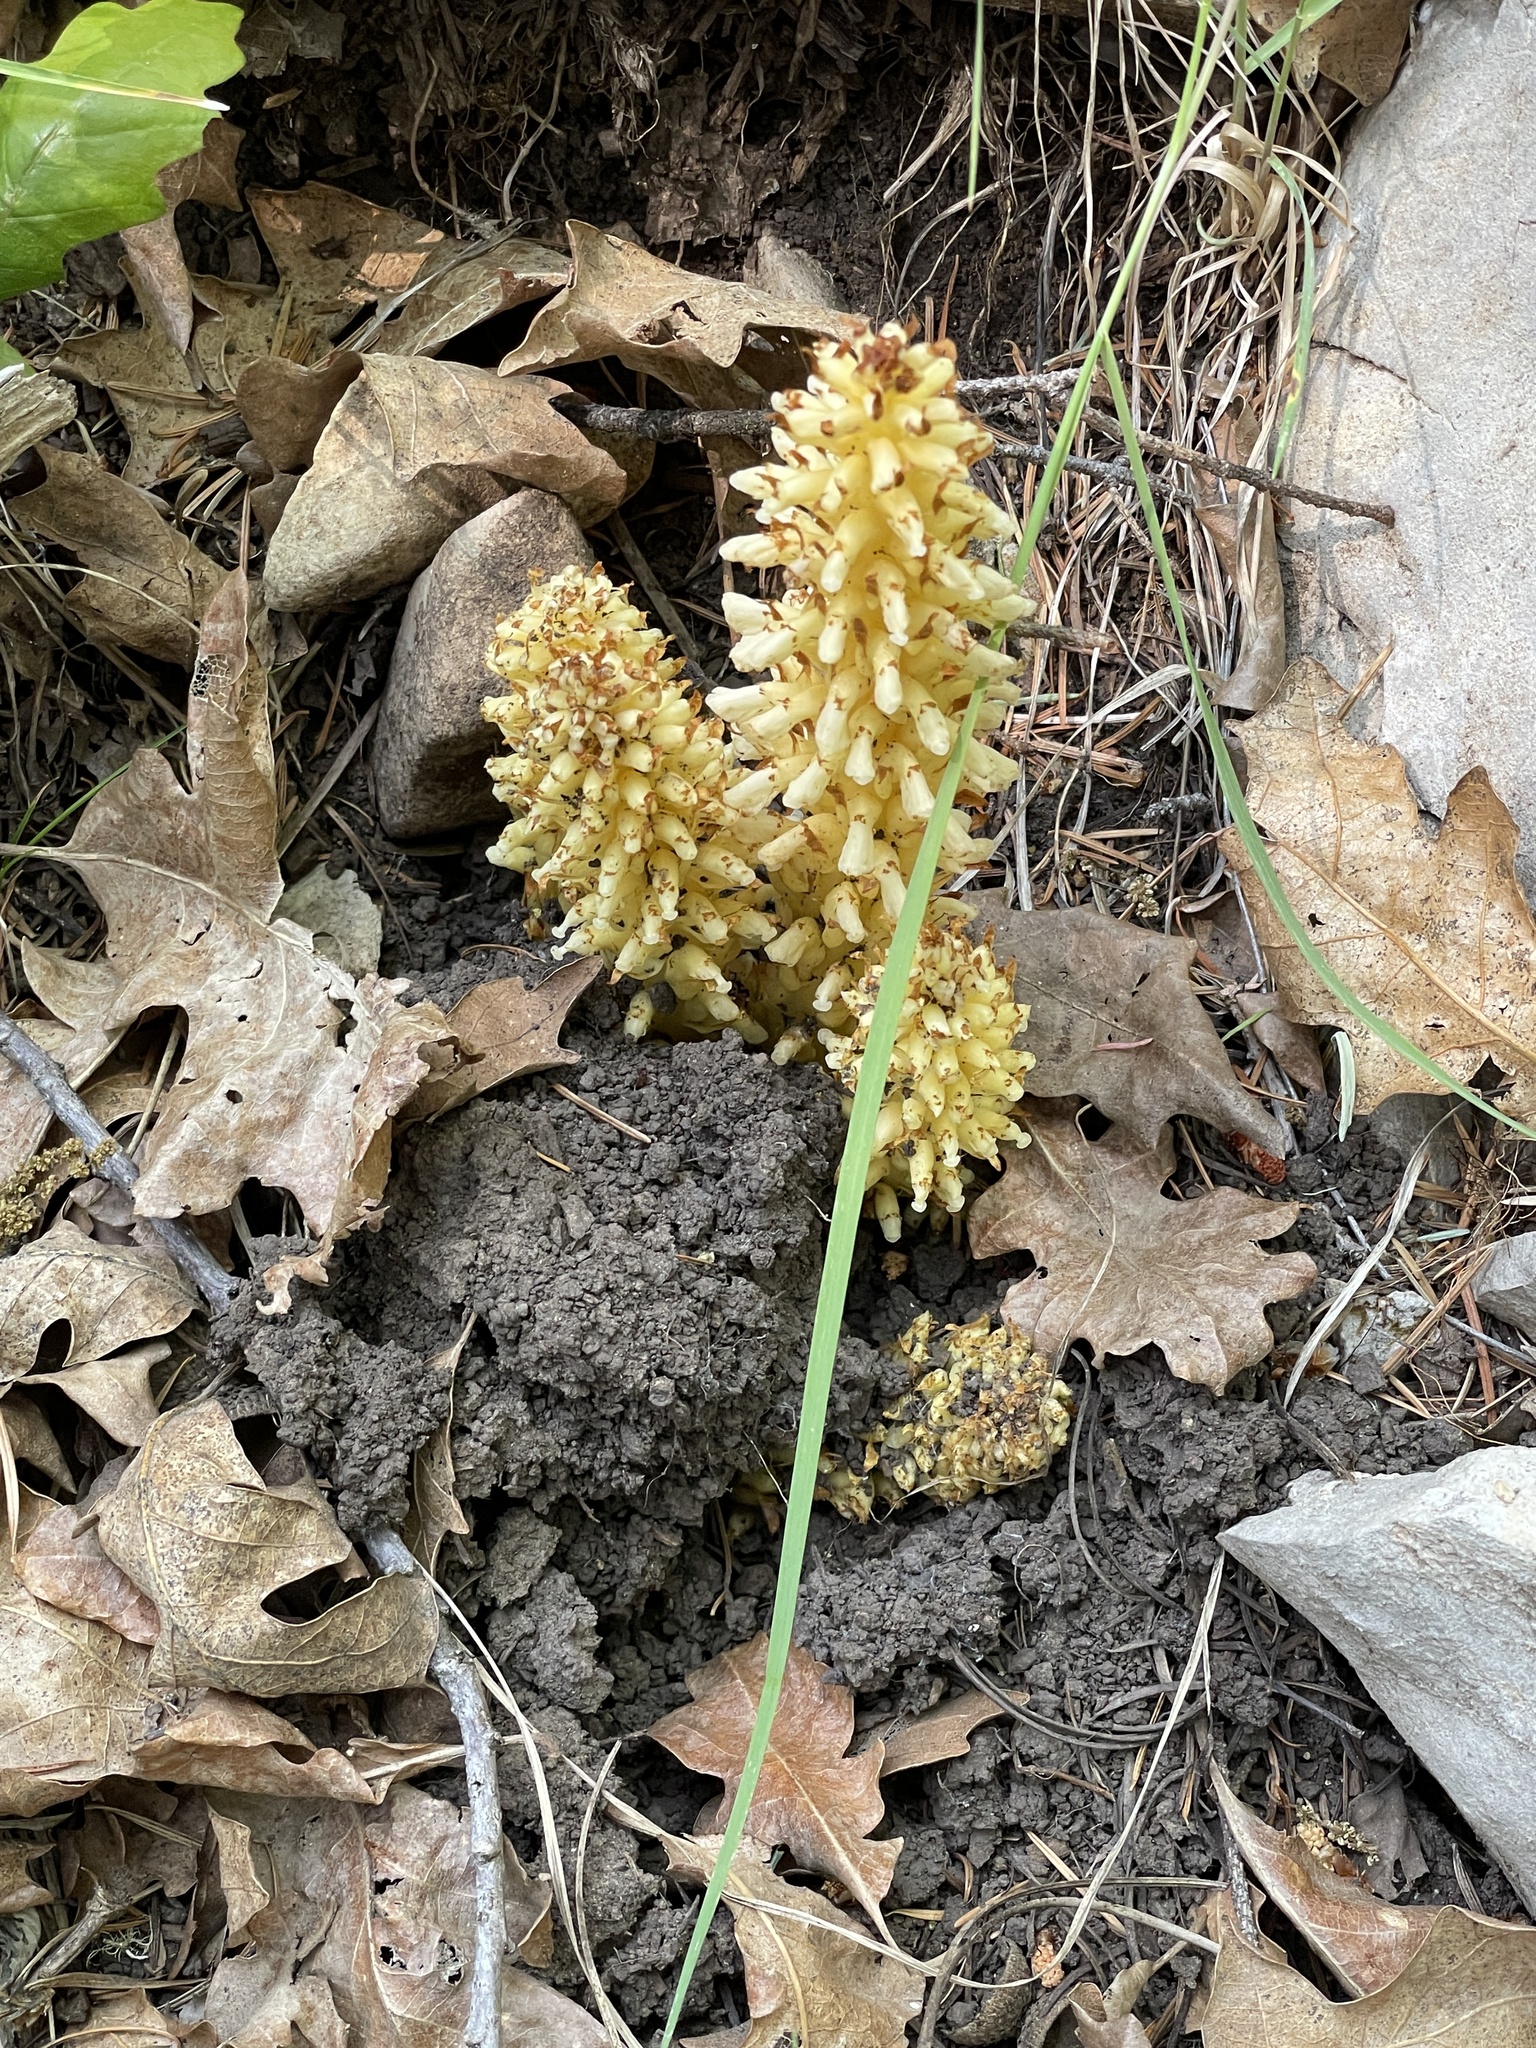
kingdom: Plantae
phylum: Tracheophyta
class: Magnoliopsida
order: Lamiales
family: Orobanchaceae
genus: Conopholis
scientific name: Conopholis alpina
